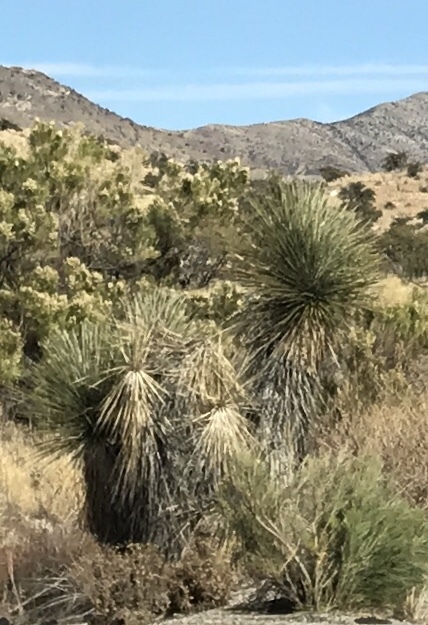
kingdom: Plantae
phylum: Tracheophyta
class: Liliopsida
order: Asparagales
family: Asparagaceae
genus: Yucca
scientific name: Yucca elata
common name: Palmella
